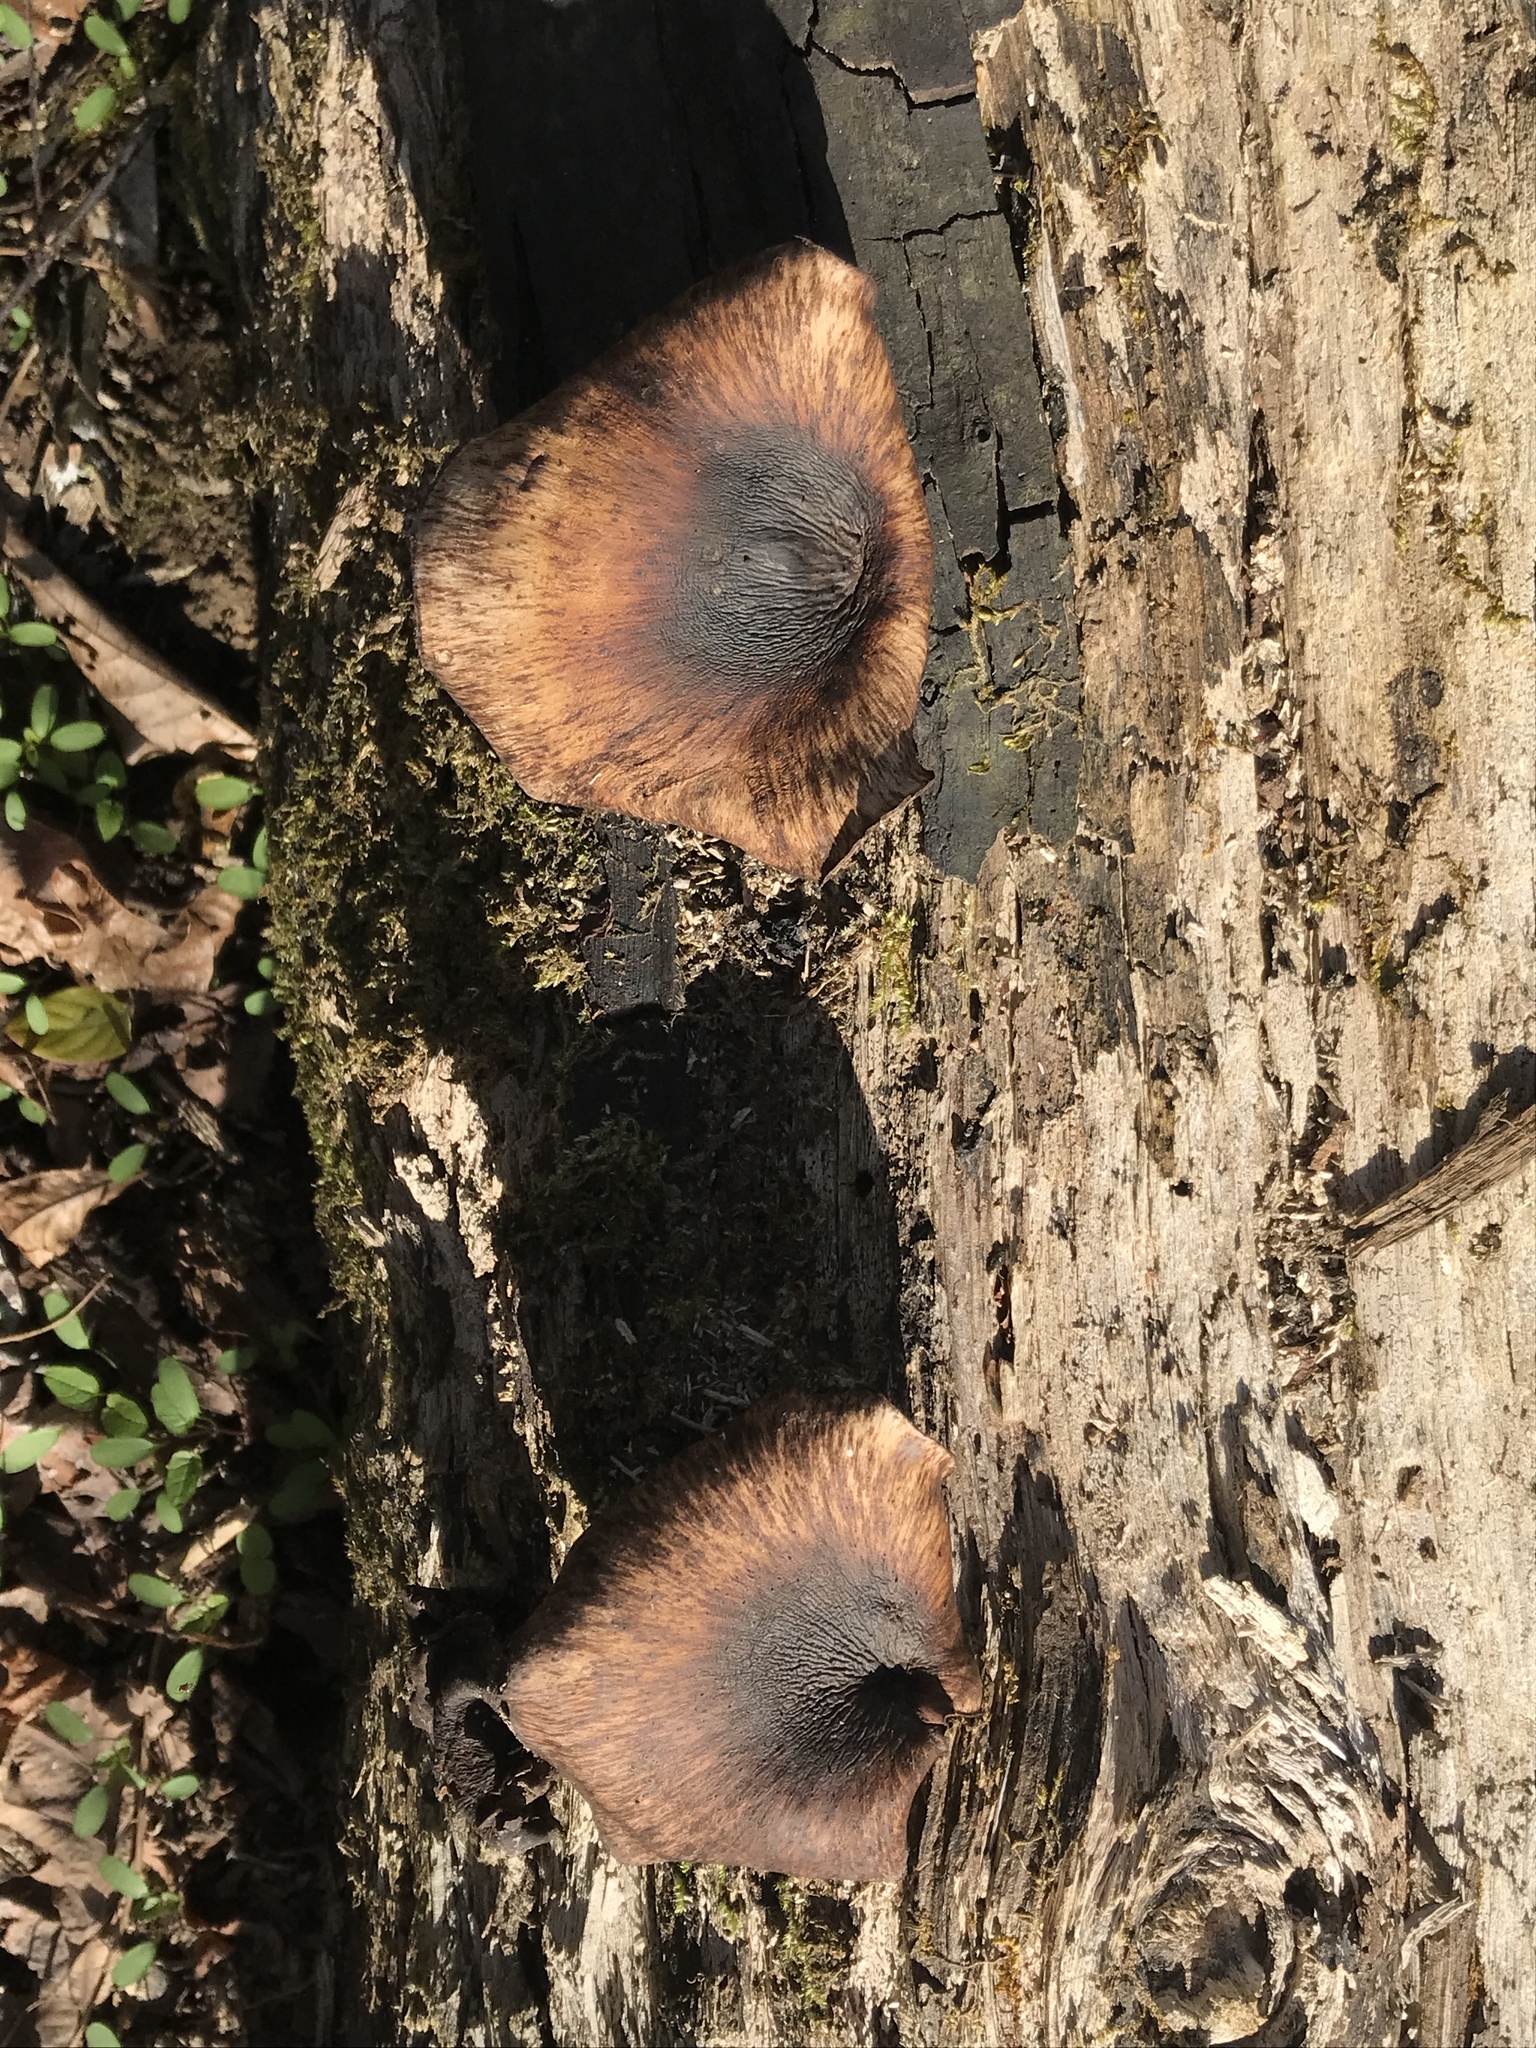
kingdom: Fungi
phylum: Basidiomycota
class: Agaricomycetes
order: Polyporales
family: Polyporaceae
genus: Picipes
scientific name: Picipes badius
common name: Bay polypore
